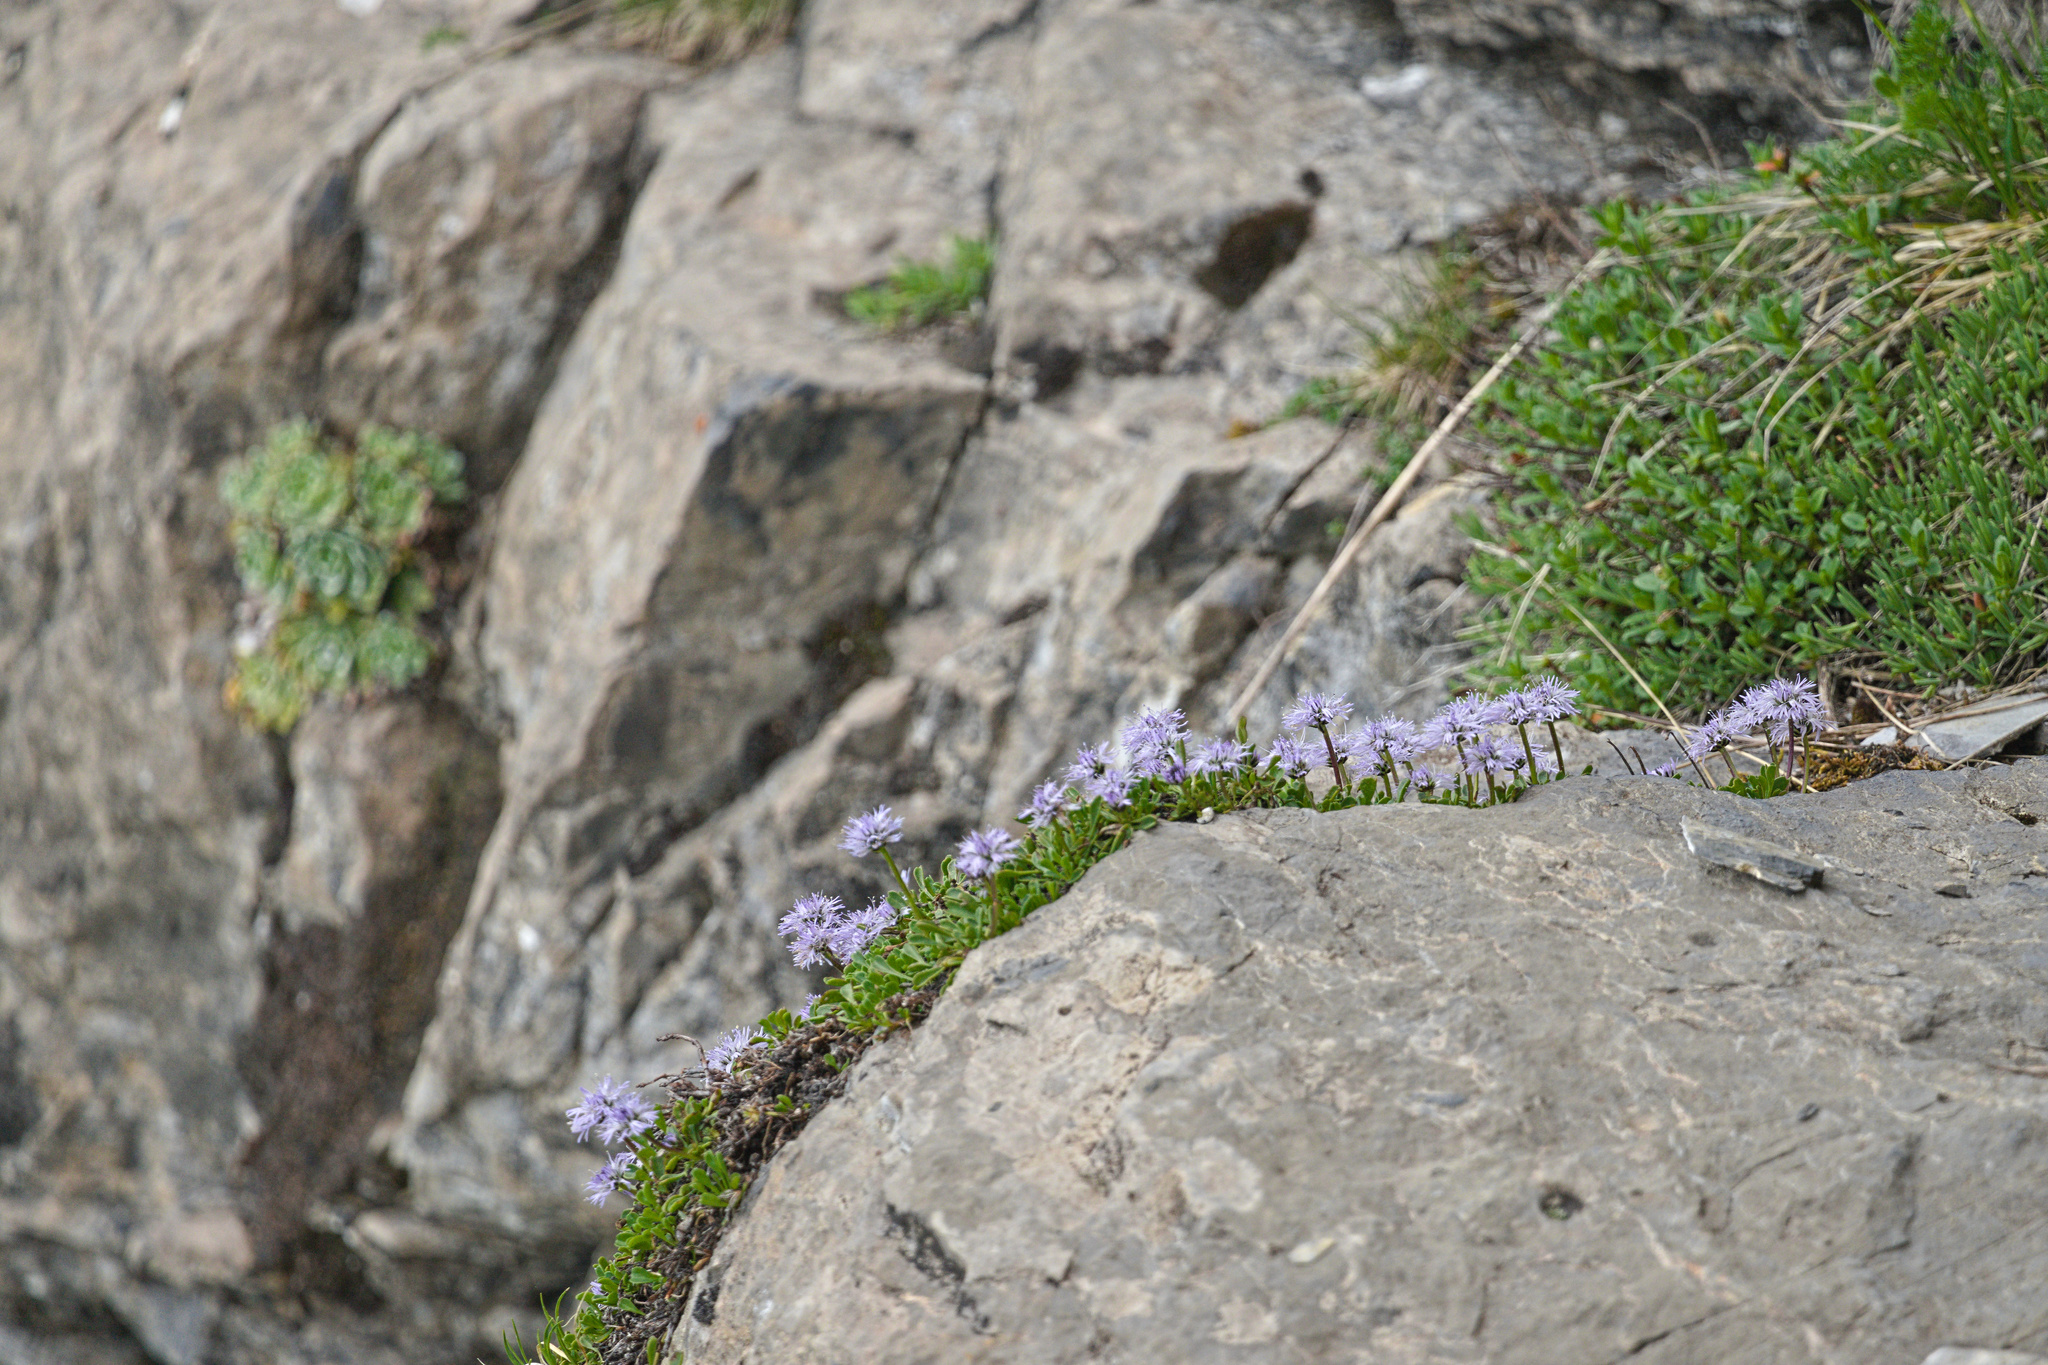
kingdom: Plantae
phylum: Tracheophyta
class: Magnoliopsida
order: Lamiales
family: Plantaginaceae
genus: Globularia
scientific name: Globularia cordifolia
